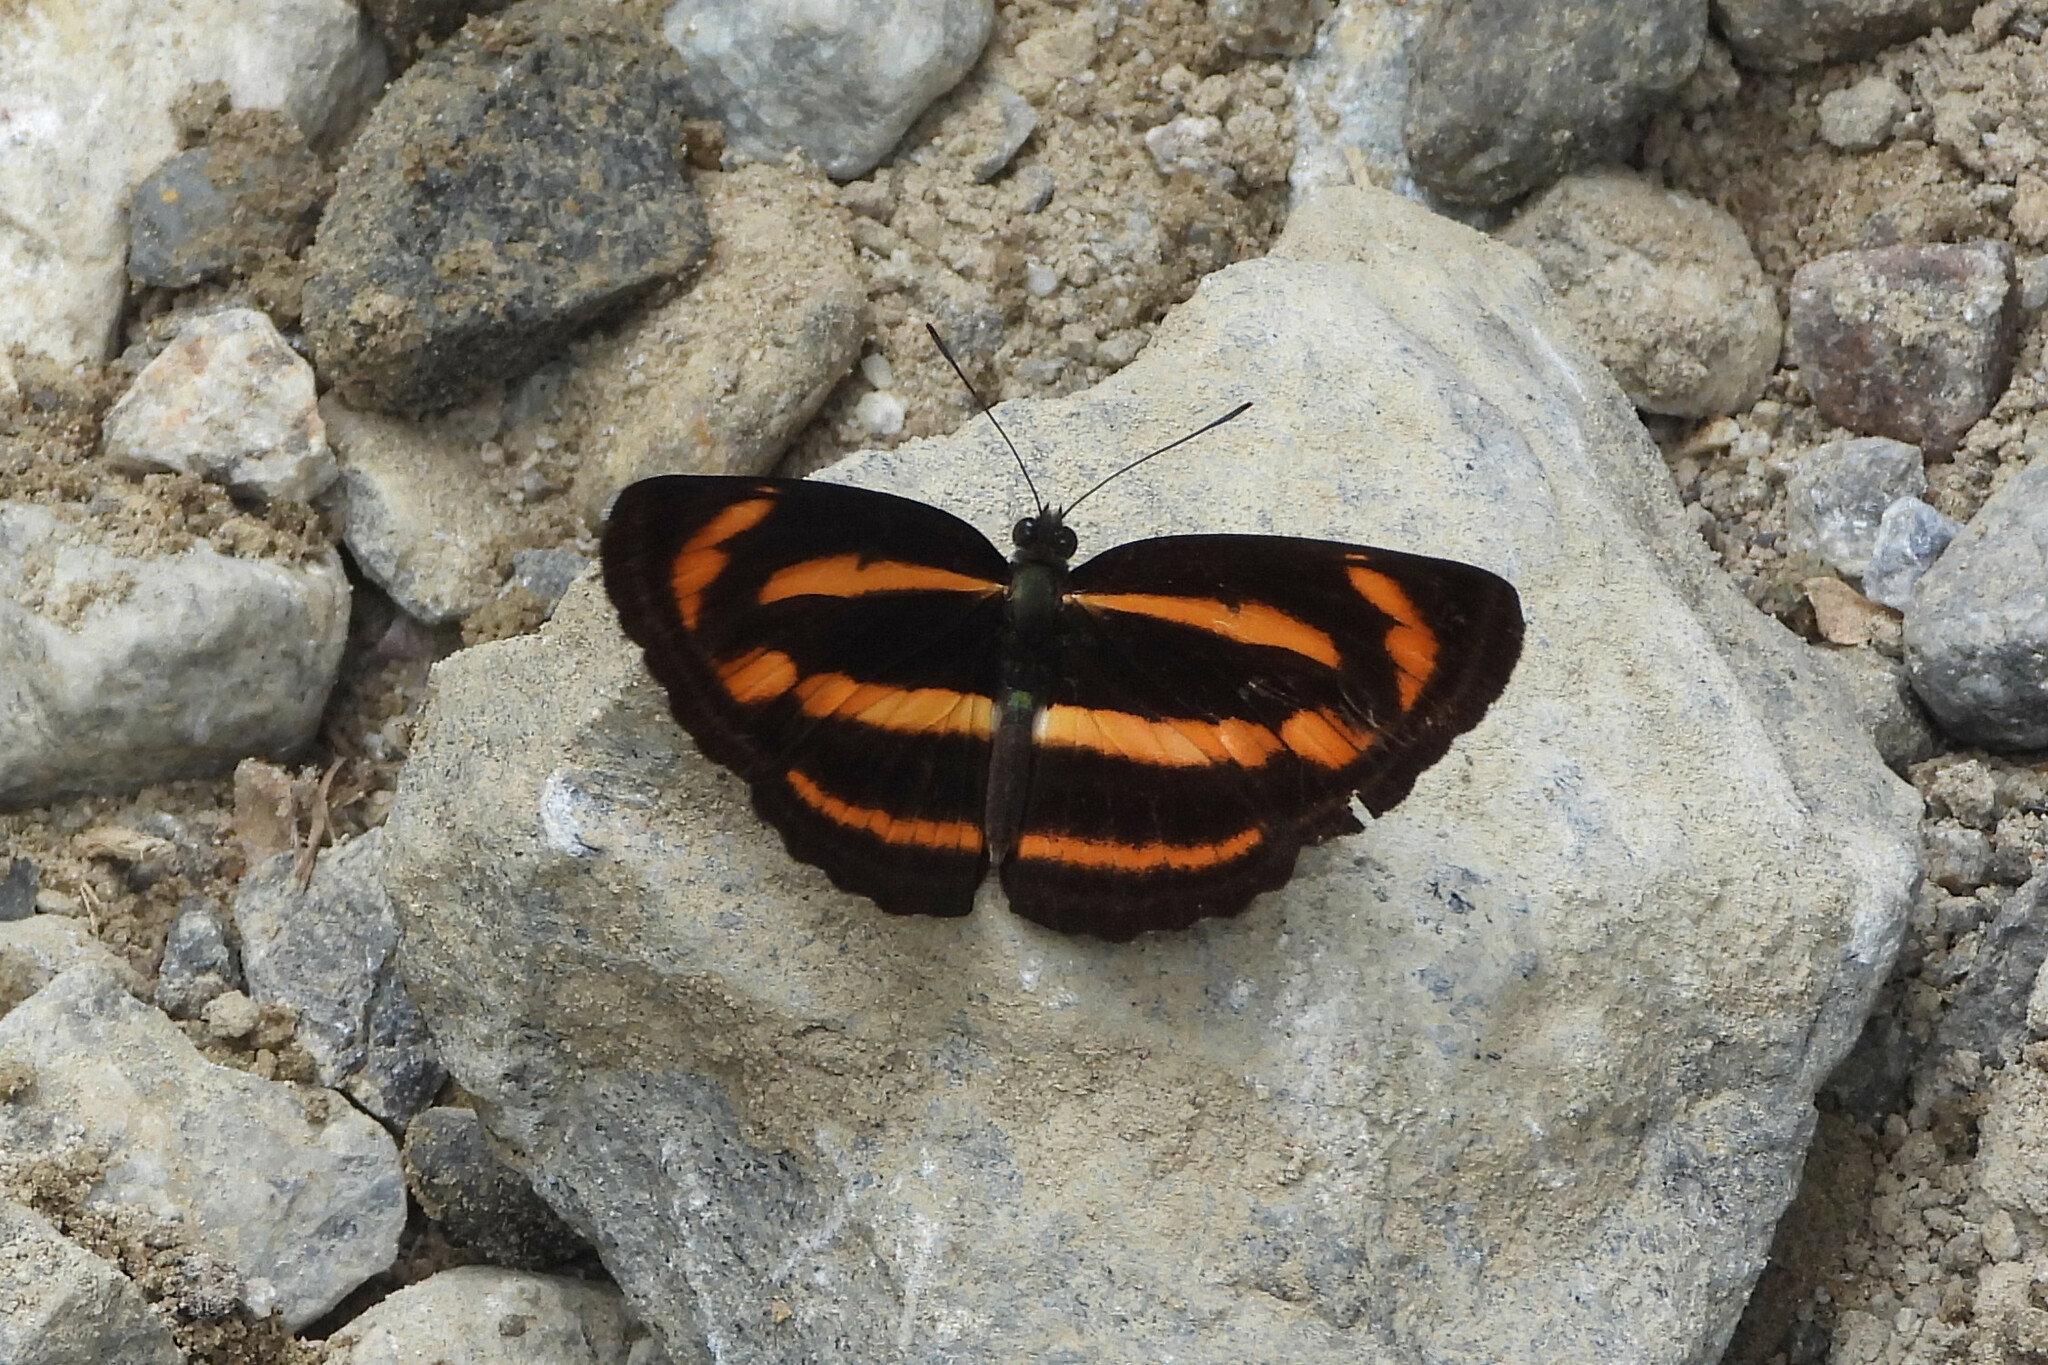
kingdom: Animalia
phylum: Arthropoda
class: Insecta
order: Lepidoptera
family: Nymphalidae
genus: Neptis
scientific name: Neptis miah
